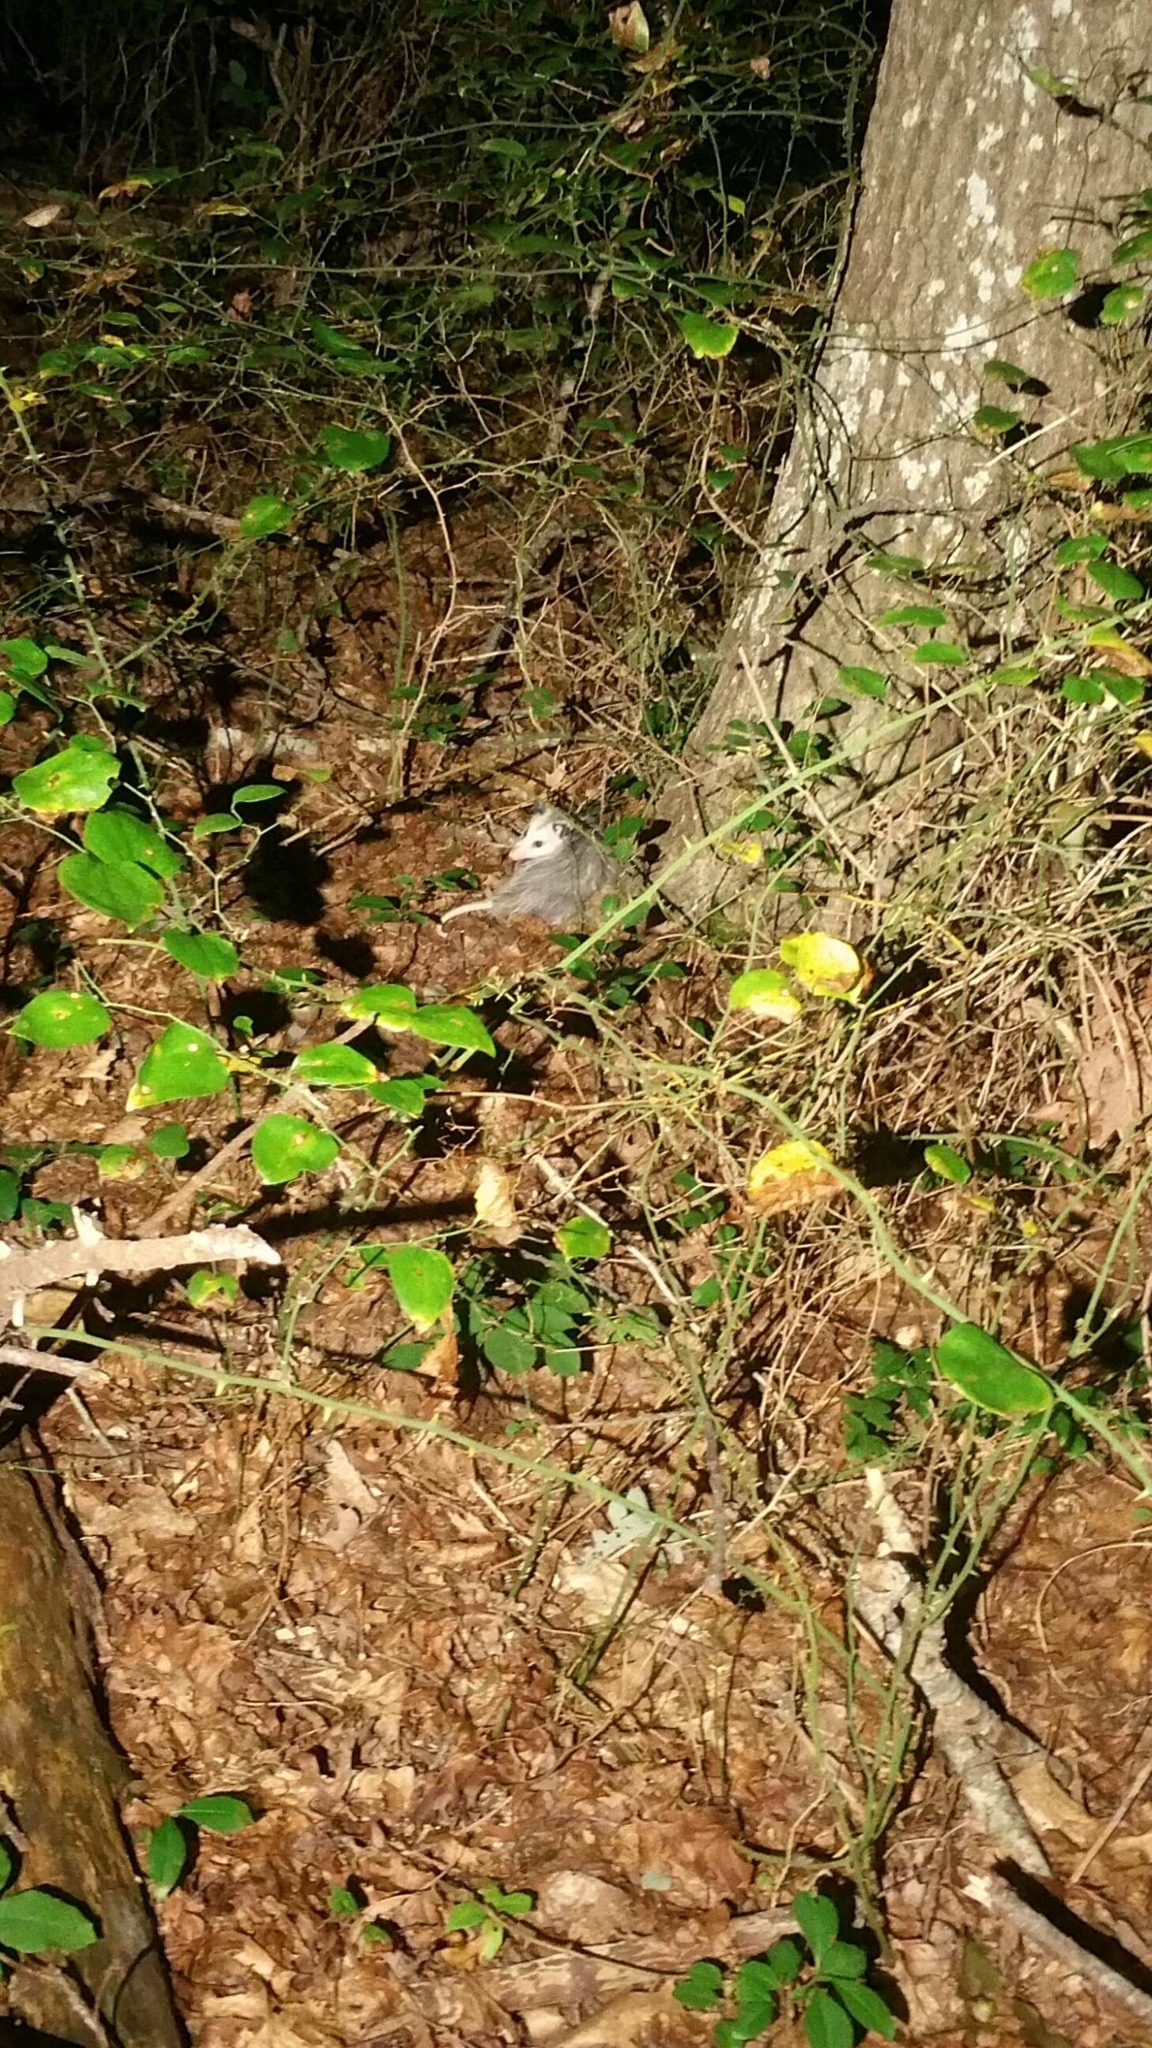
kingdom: Animalia
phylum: Chordata
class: Mammalia
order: Didelphimorphia
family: Didelphidae
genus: Didelphis
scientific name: Didelphis virginiana
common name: Virginia opossum
